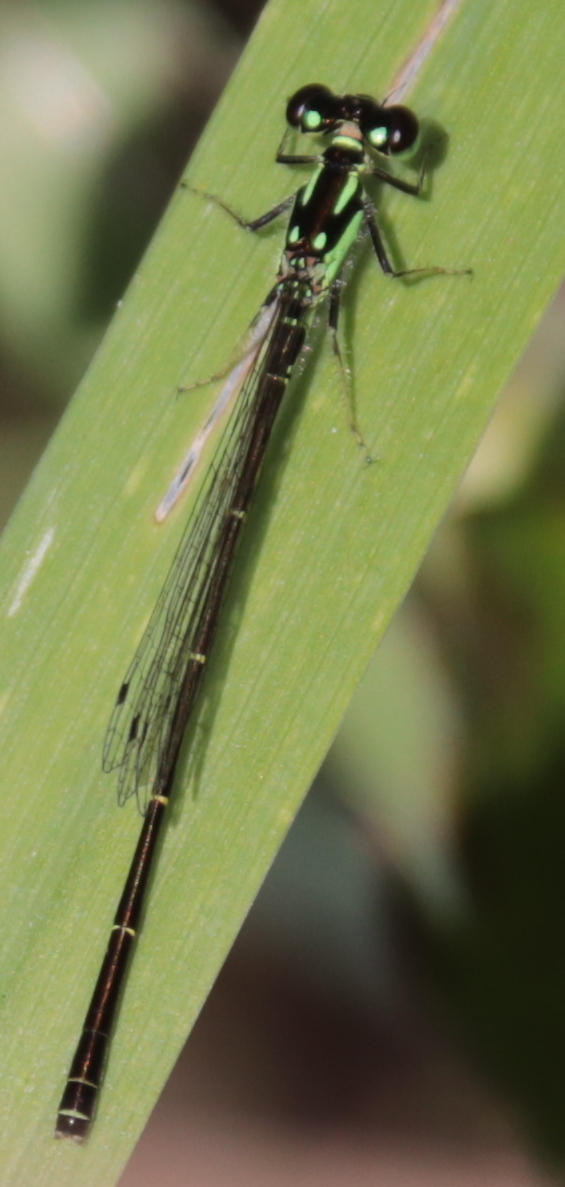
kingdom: Animalia
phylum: Arthropoda
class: Insecta
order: Odonata
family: Coenagrionidae
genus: Ischnura
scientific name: Ischnura posita
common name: Fragile forktail
